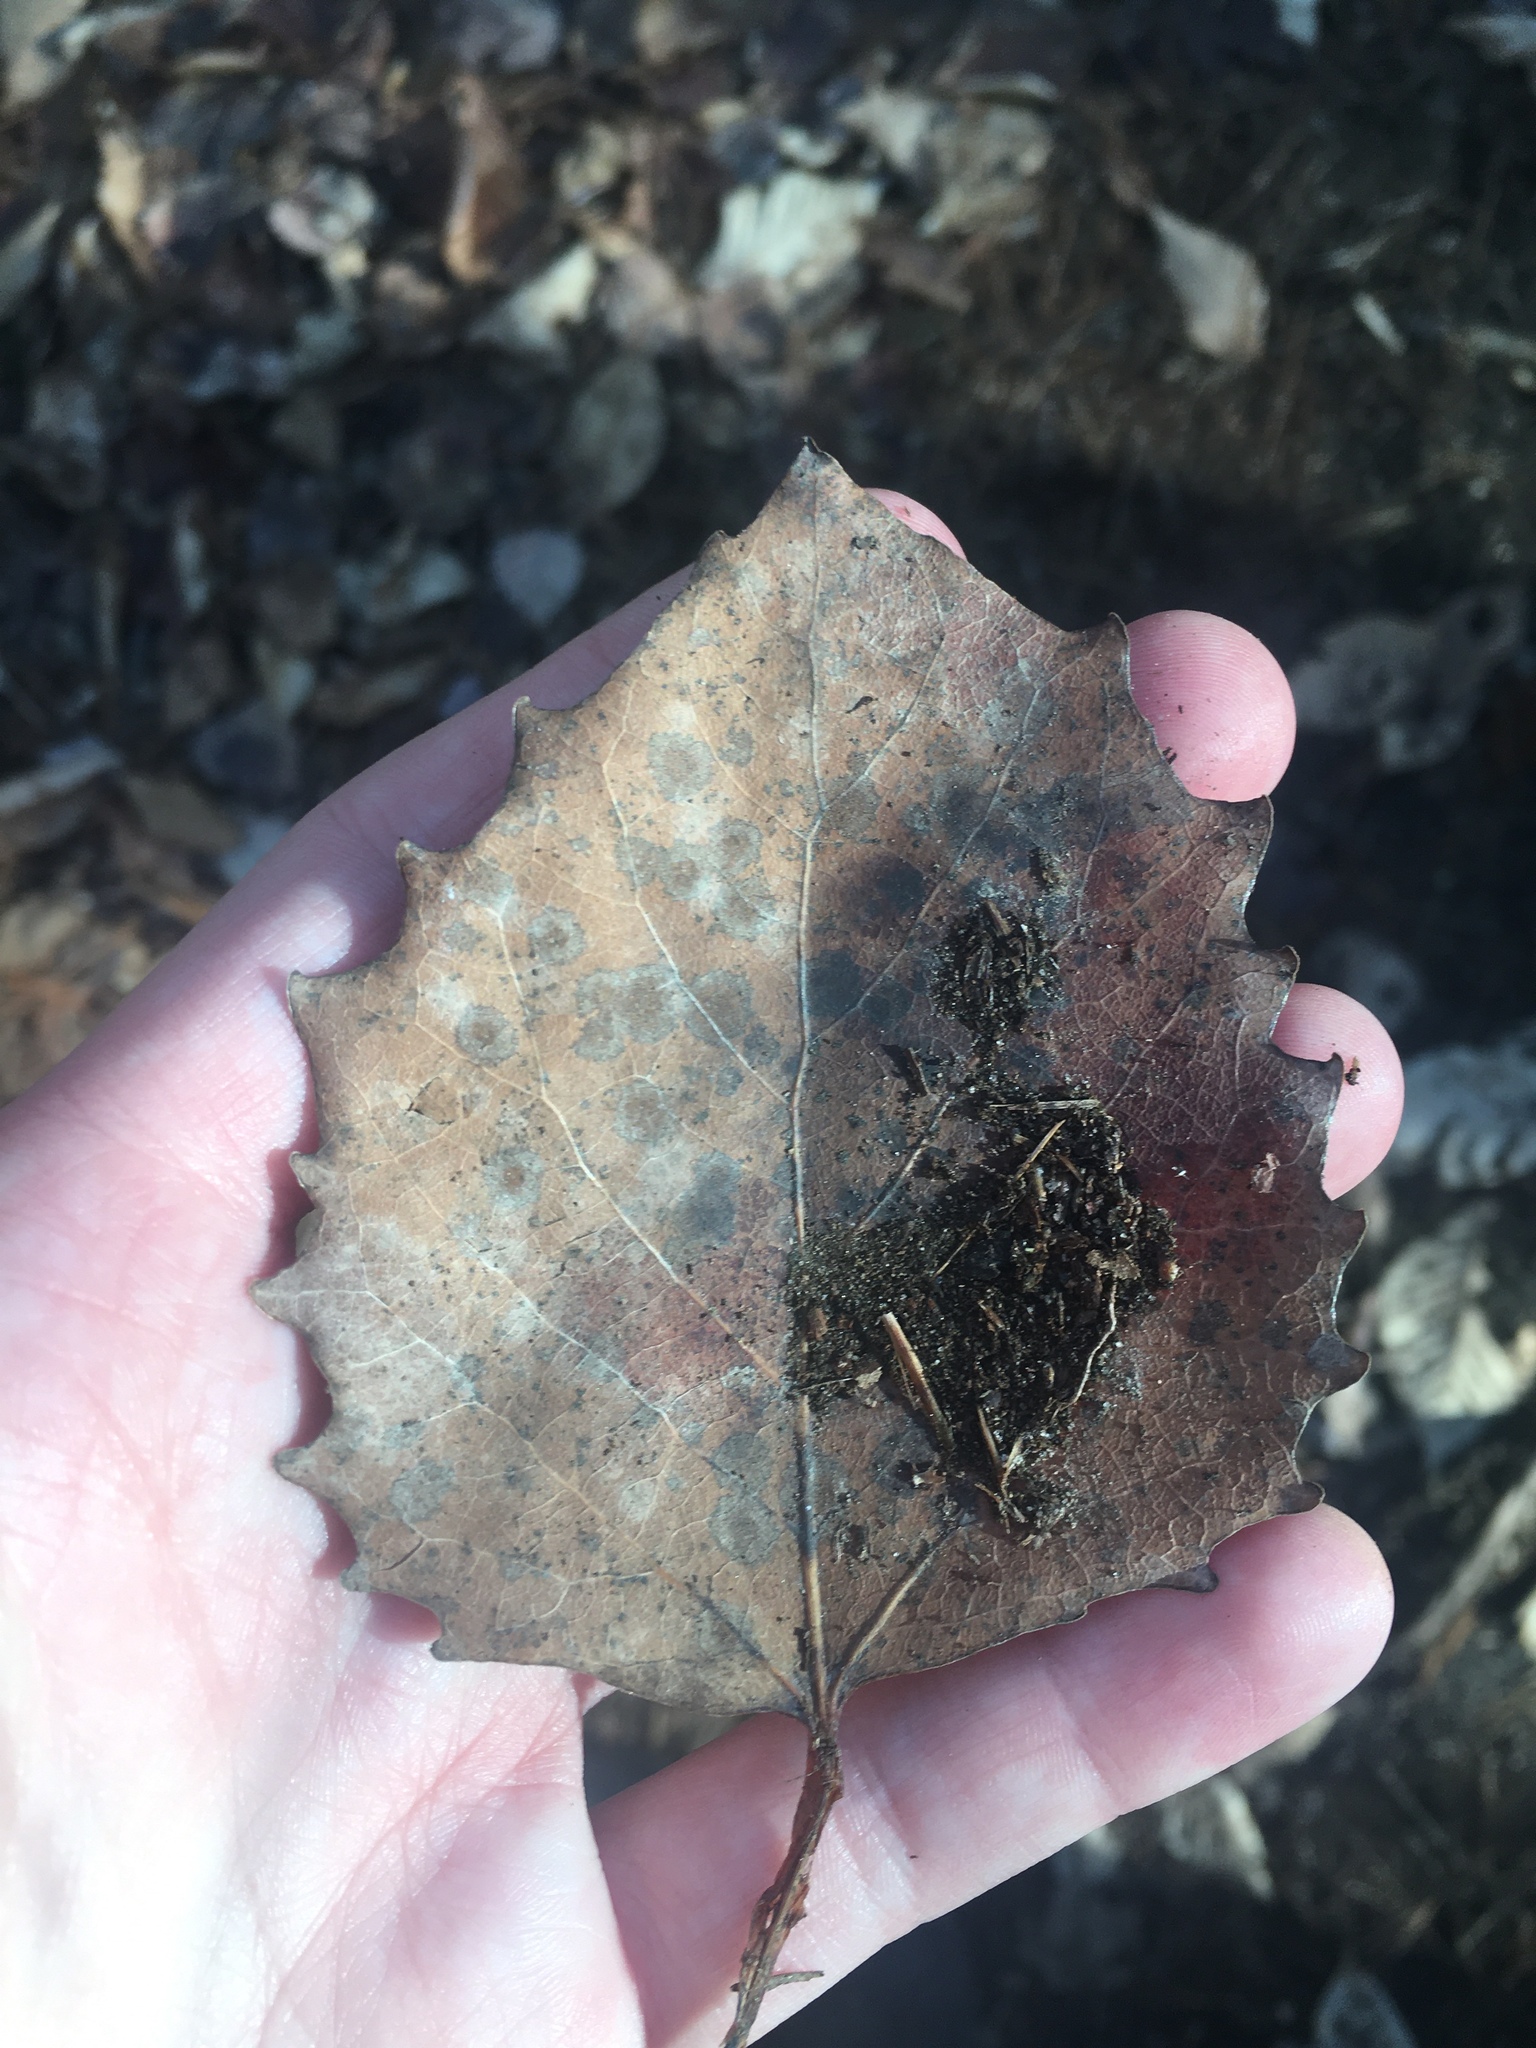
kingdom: Plantae
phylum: Tracheophyta
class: Magnoliopsida
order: Malpighiales
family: Salicaceae
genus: Populus
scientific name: Populus grandidentata
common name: Bigtooth aspen
